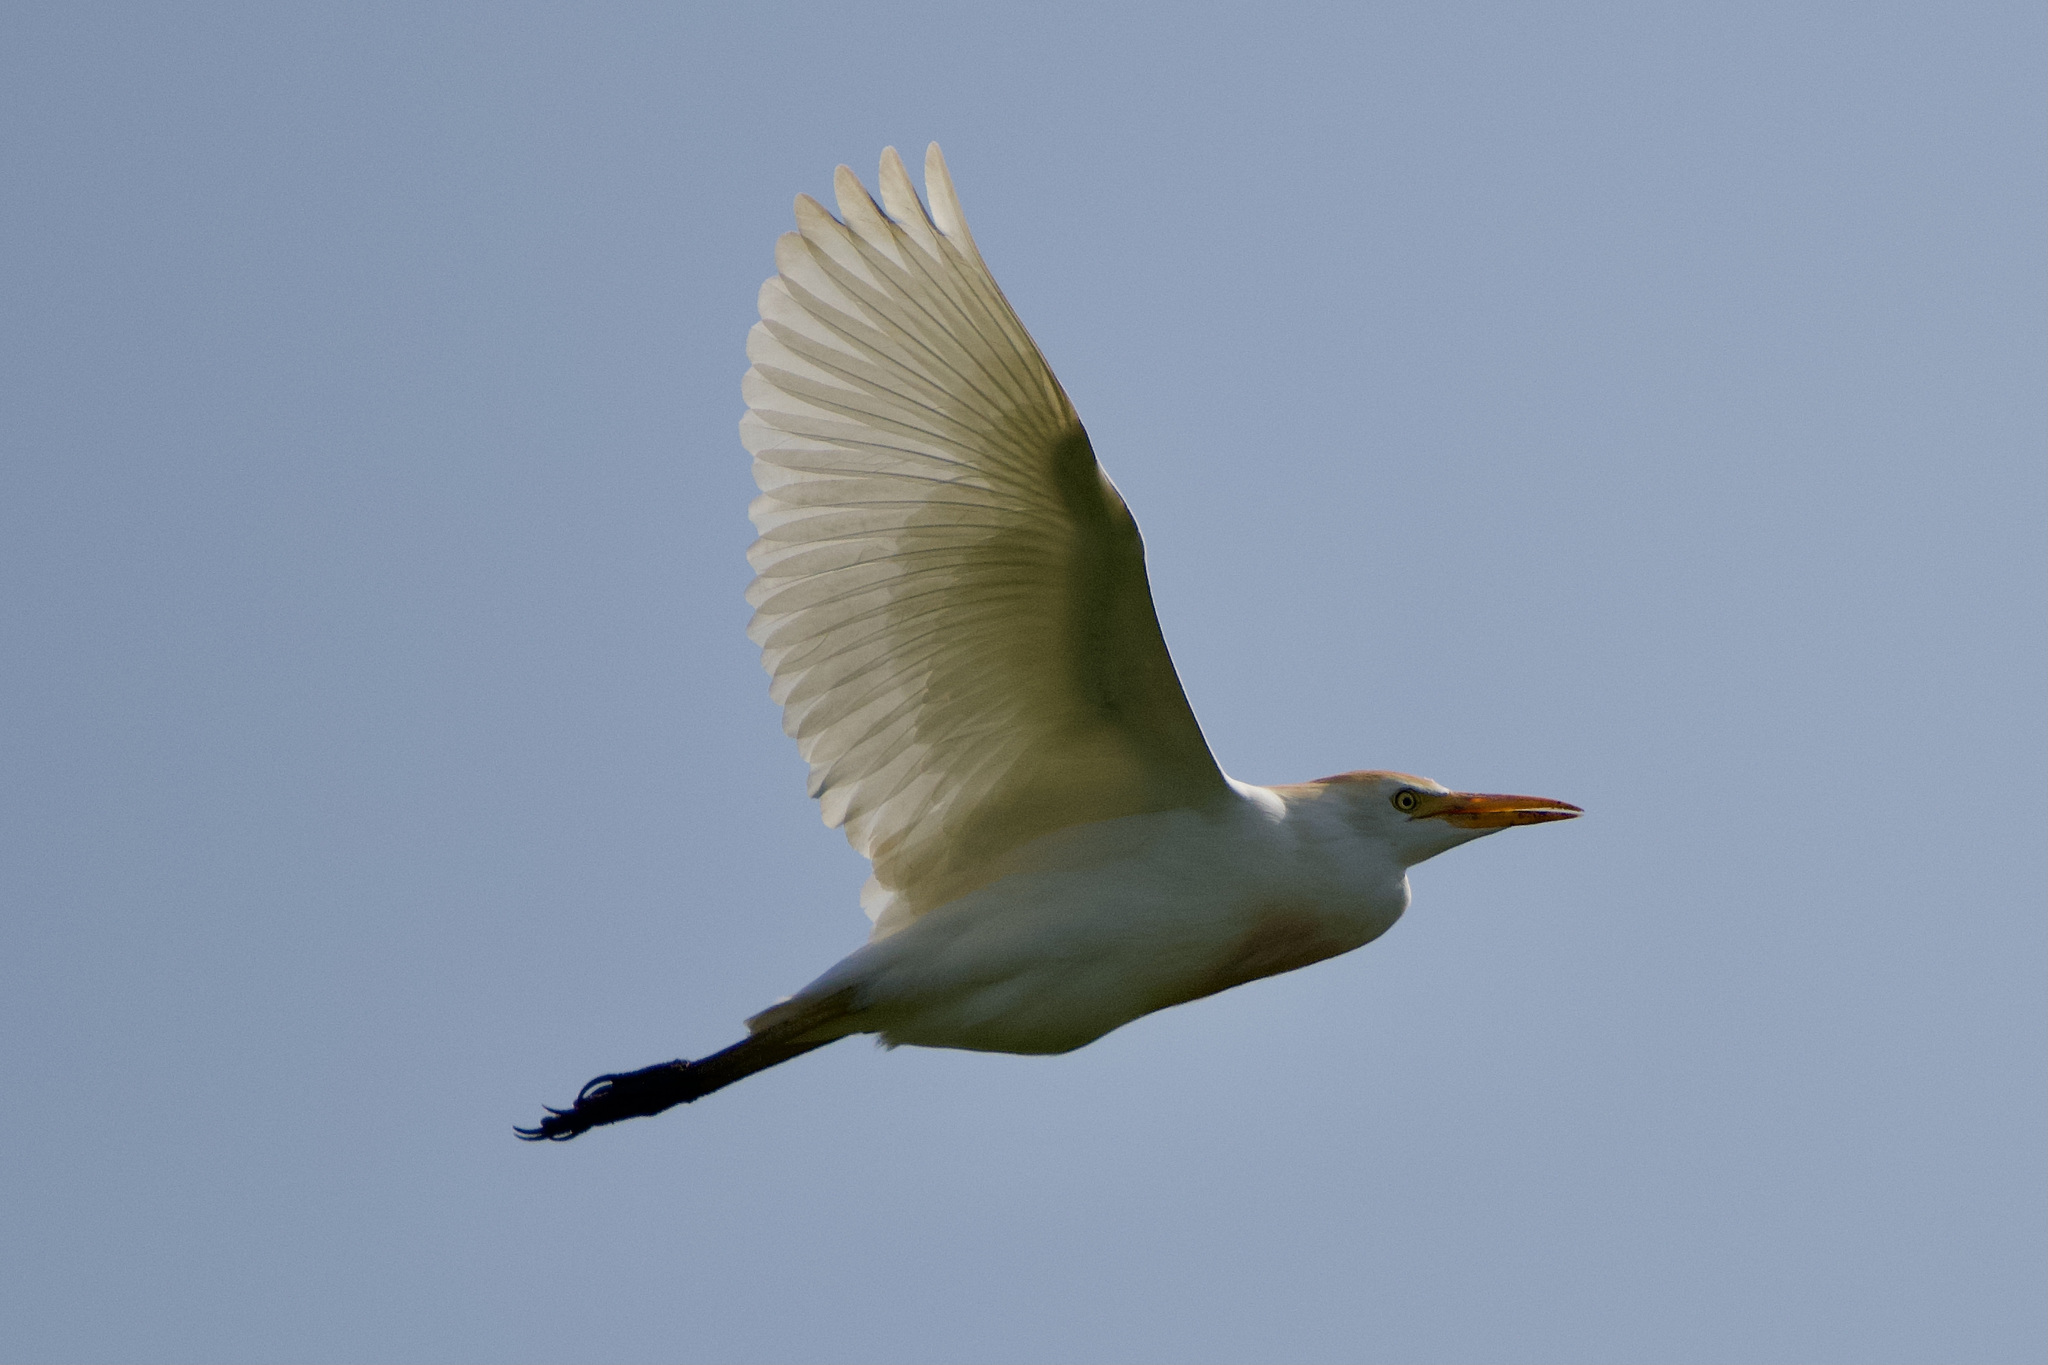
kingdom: Animalia
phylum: Chordata
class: Aves
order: Pelecaniformes
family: Ardeidae
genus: Bubulcus
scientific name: Bubulcus ibis
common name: Cattle egret
